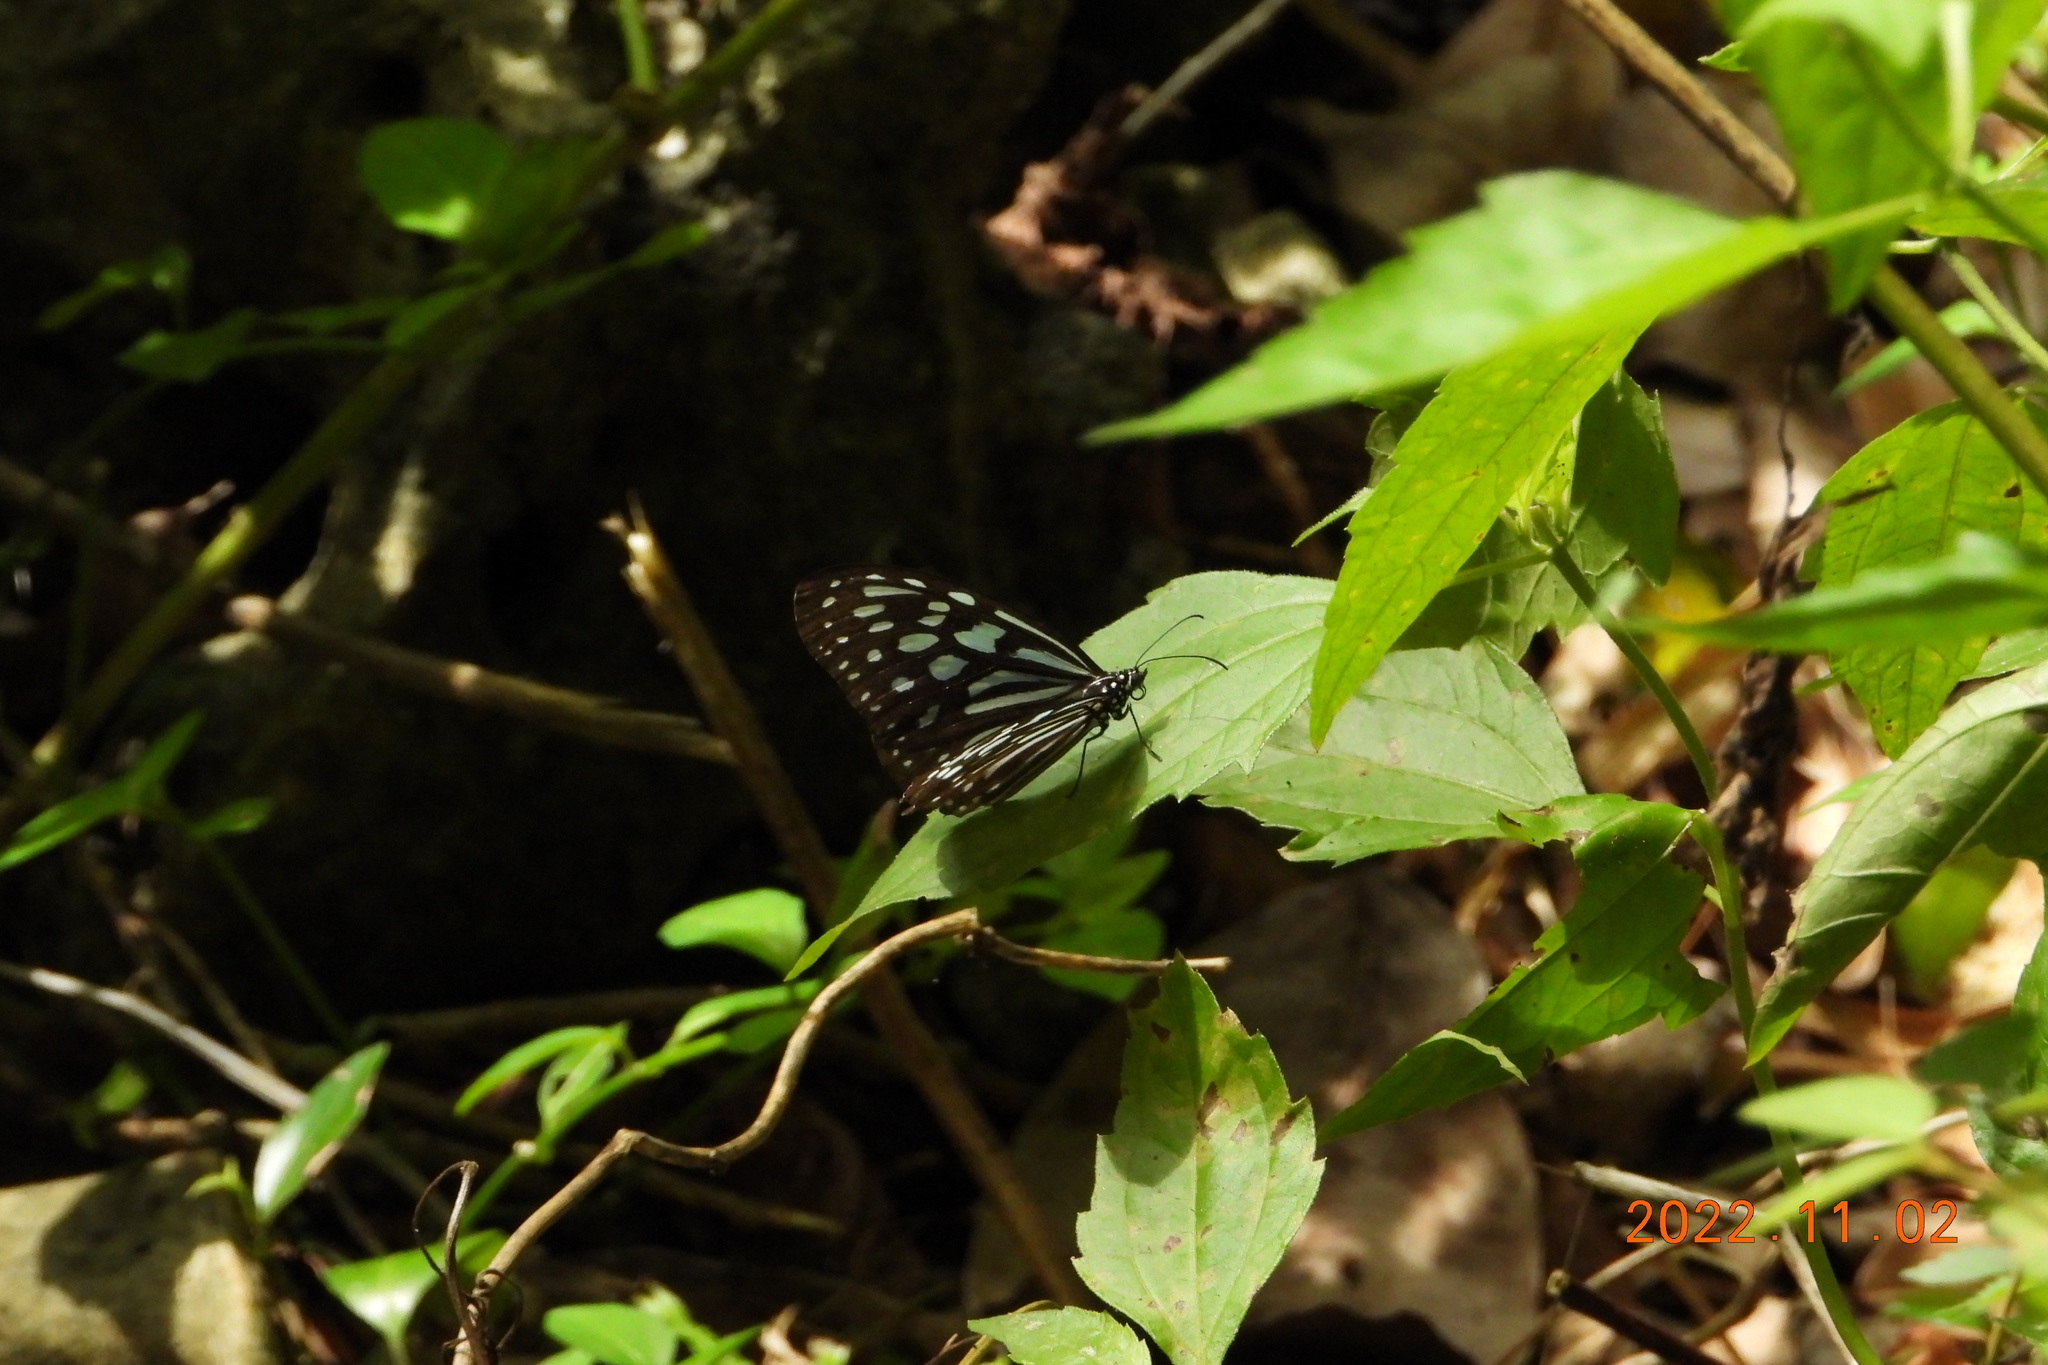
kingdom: Animalia
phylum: Arthropoda
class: Insecta
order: Lepidoptera
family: Nymphalidae
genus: Ideopsis
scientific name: Ideopsis similis
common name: Ceylon blue glassy tiger
